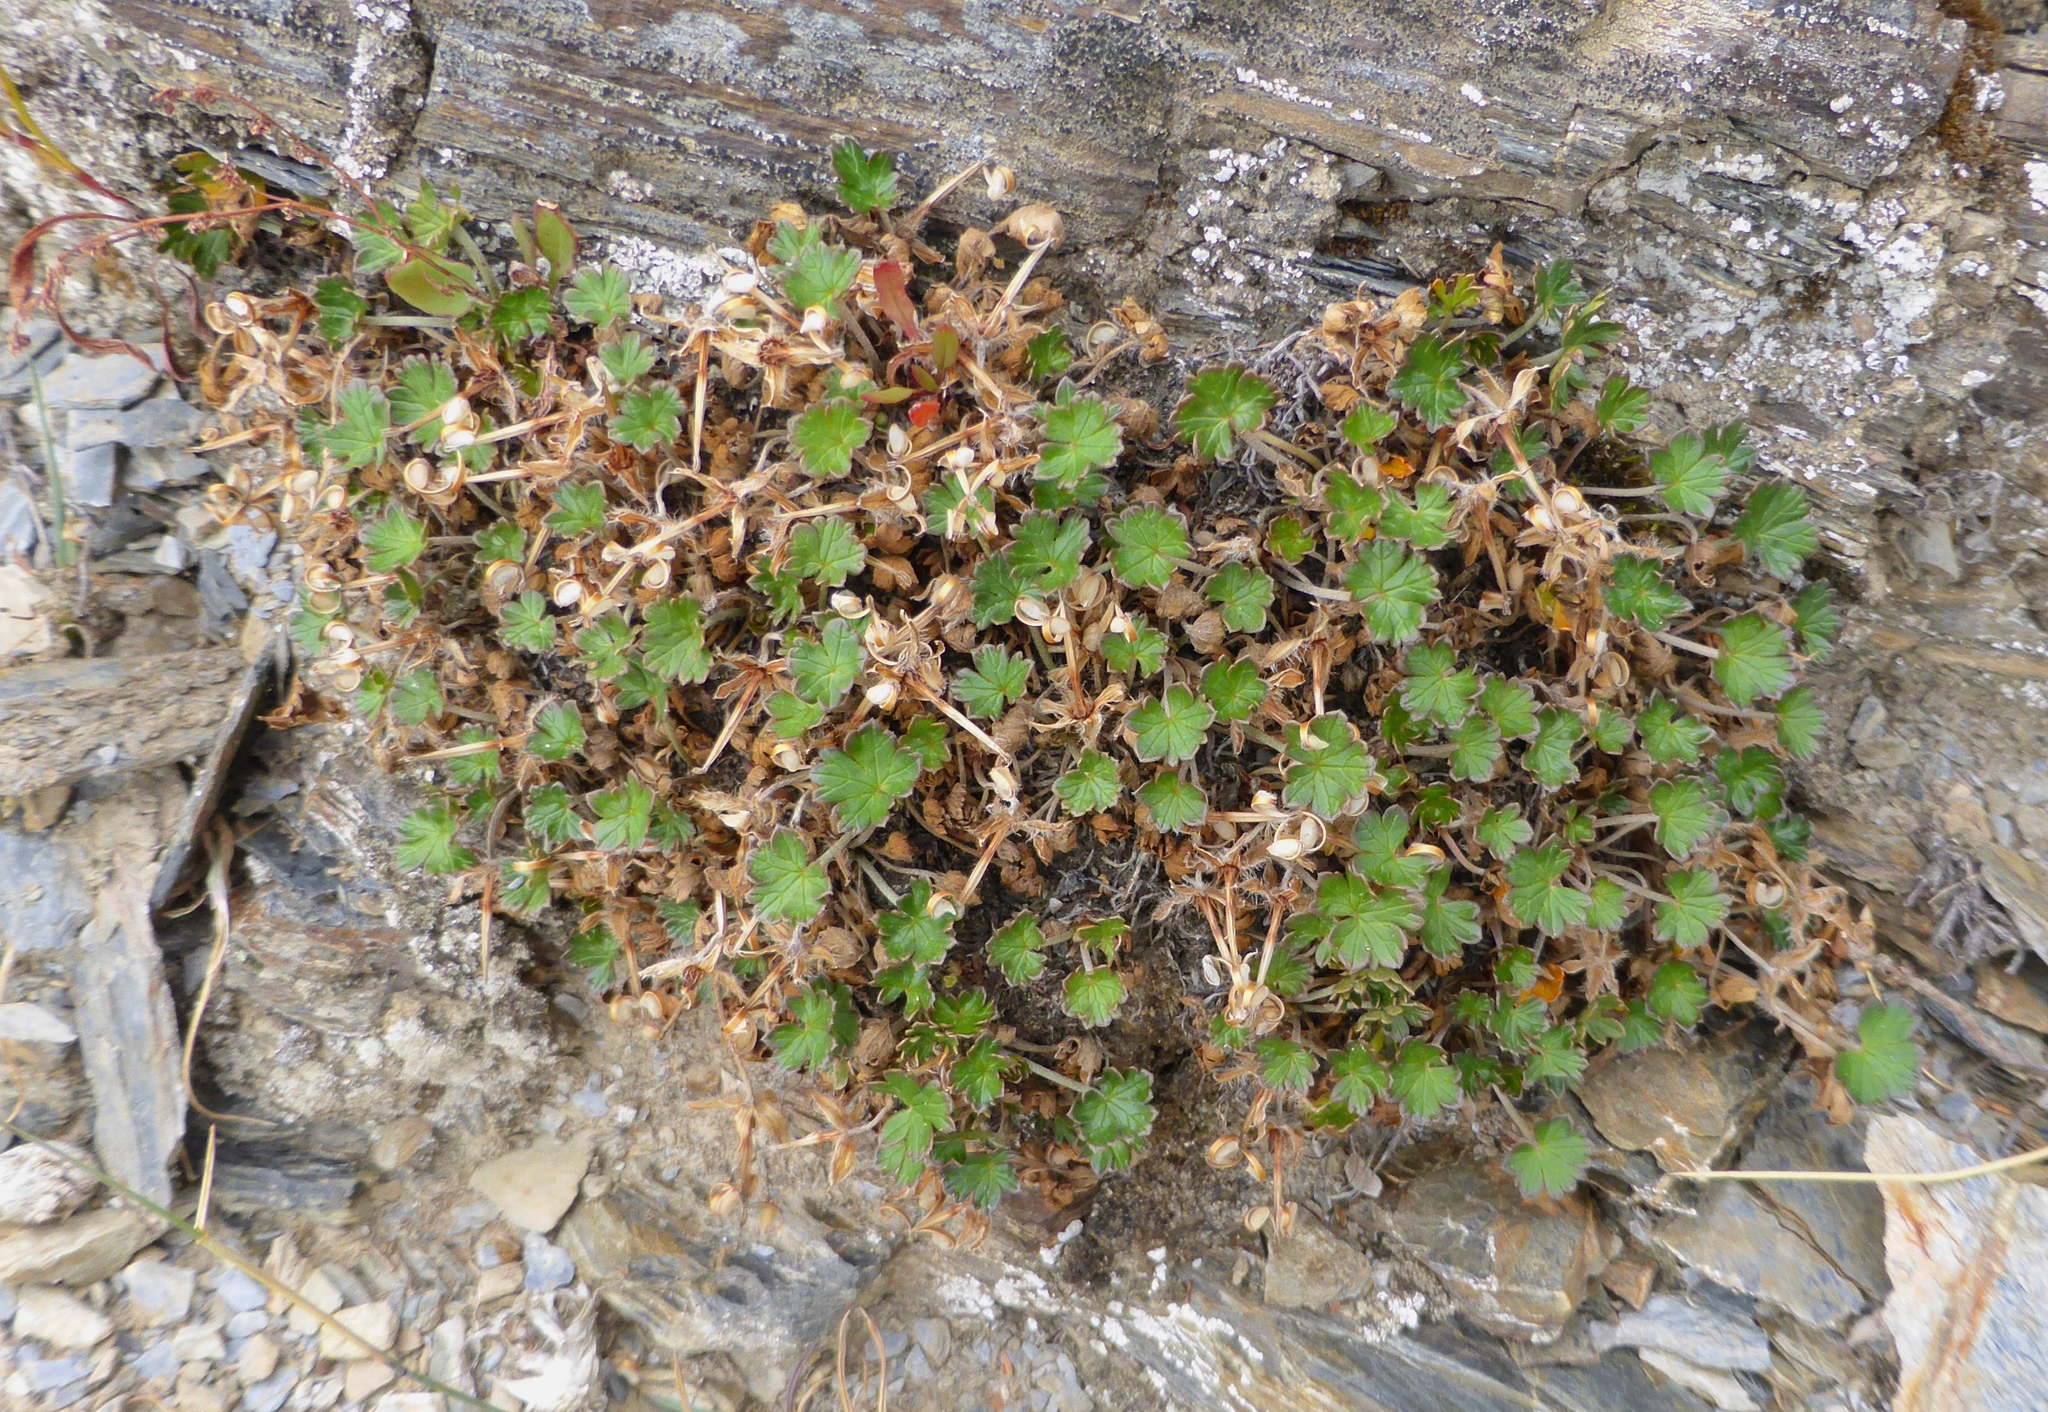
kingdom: Plantae
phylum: Tracheophyta
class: Magnoliopsida
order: Geraniales
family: Geraniaceae
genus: Geranium
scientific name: Geranium brevicaule
